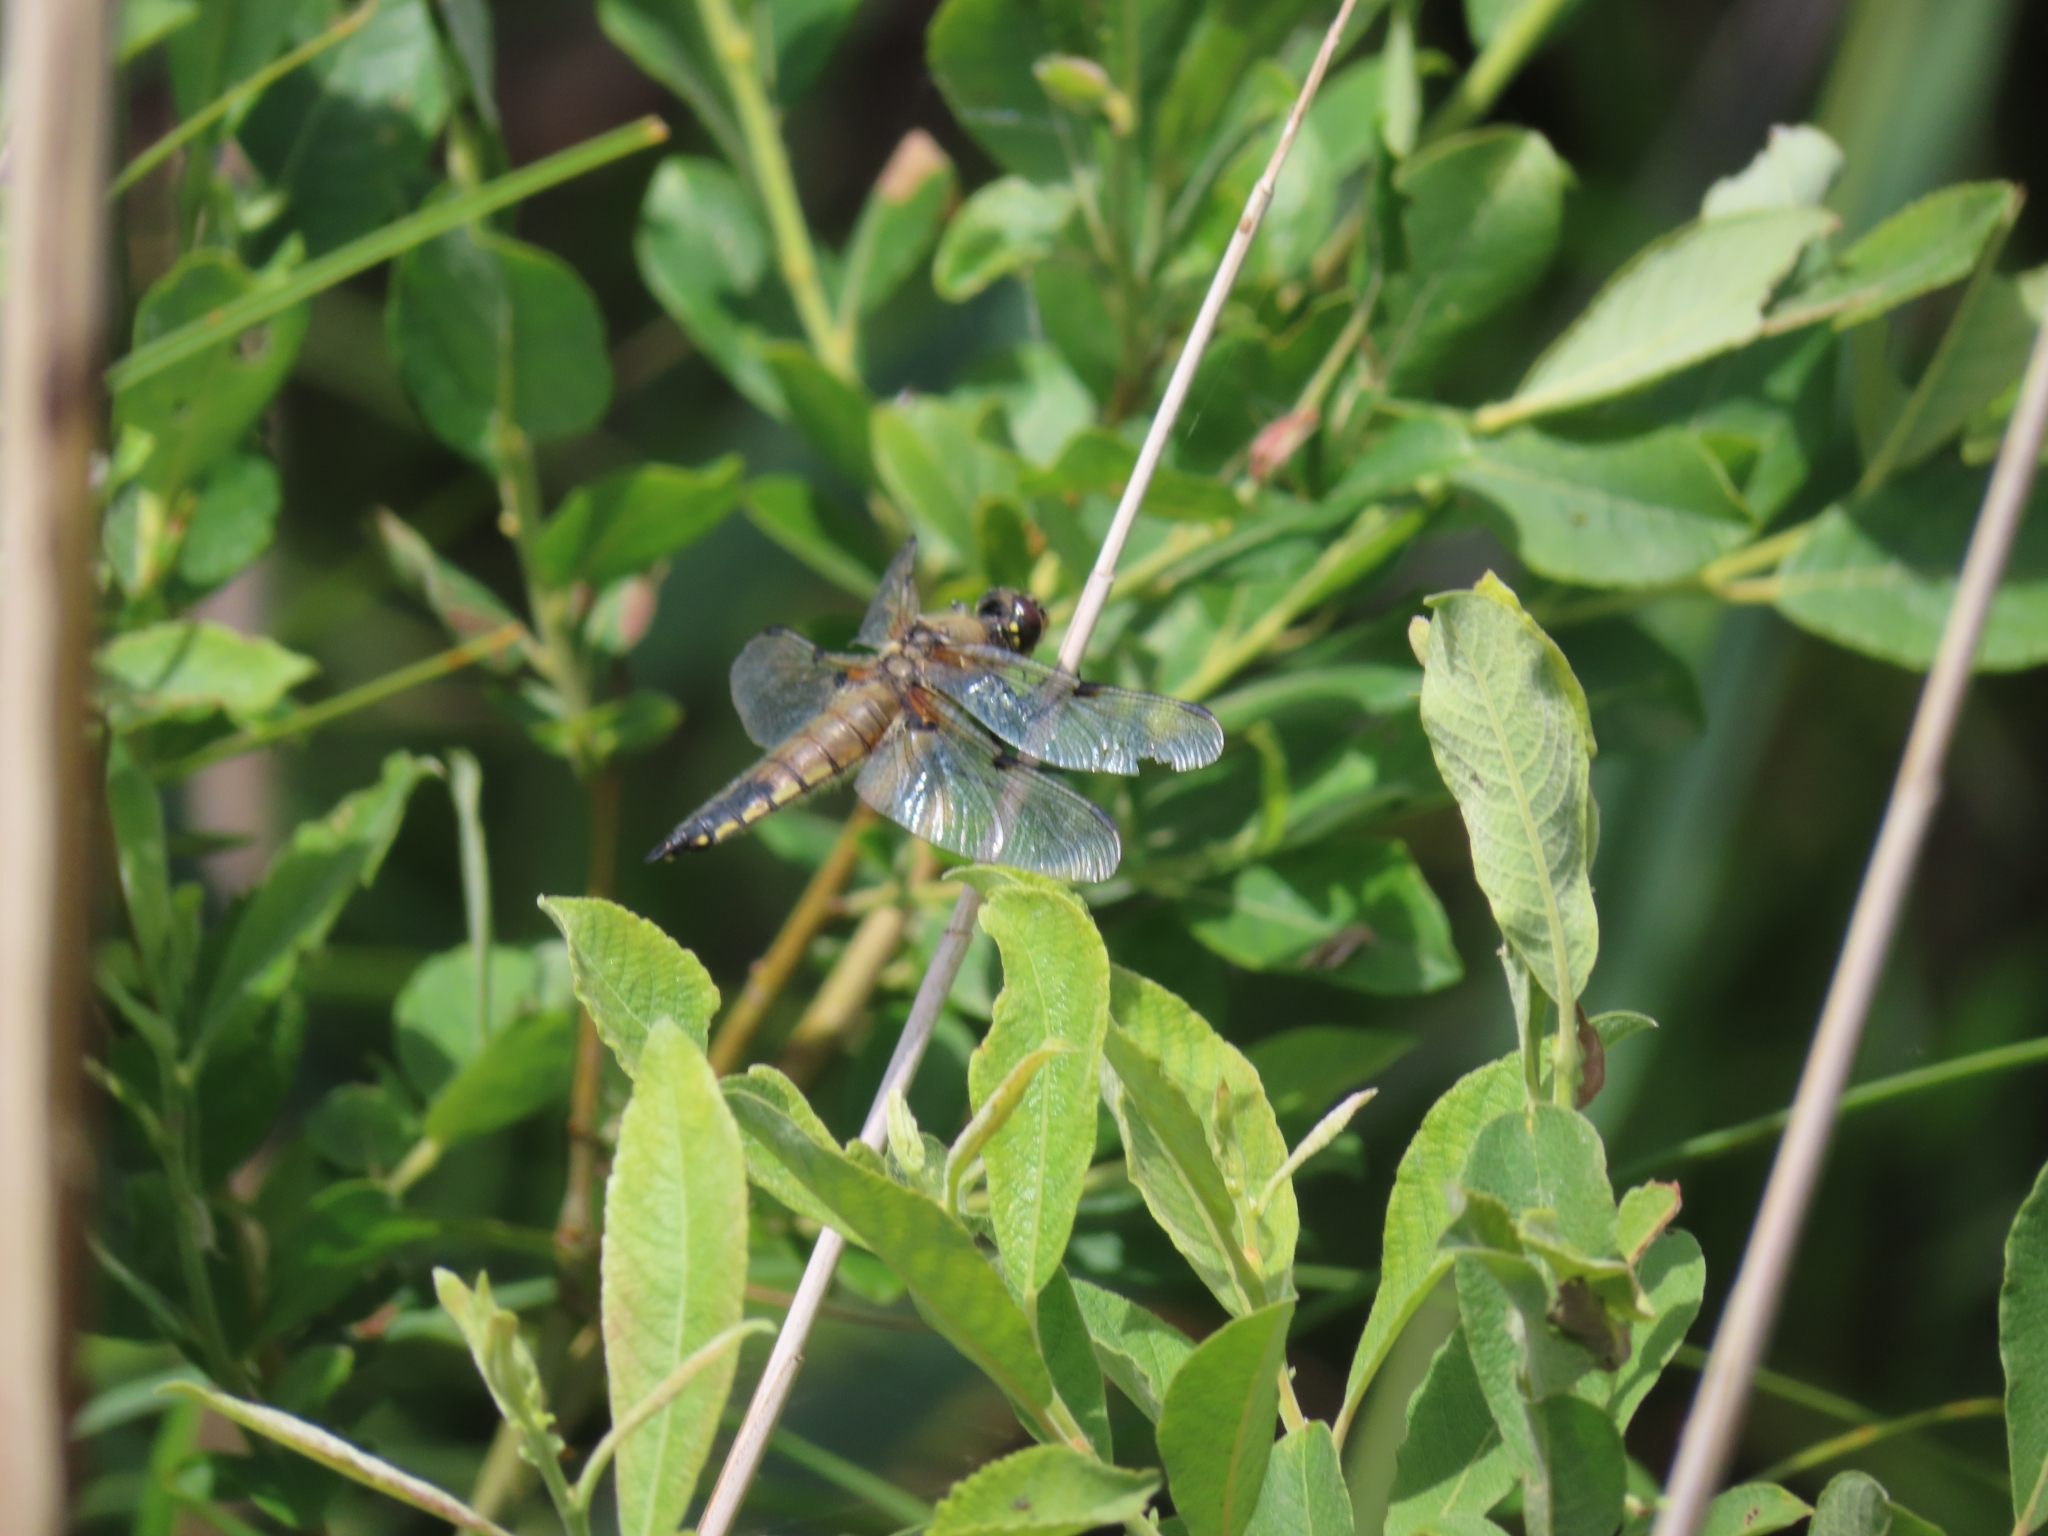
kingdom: Animalia
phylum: Arthropoda
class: Insecta
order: Odonata
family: Libellulidae
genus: Libellula
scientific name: Libellula quadrimaculata
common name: Four-spotted chaser
